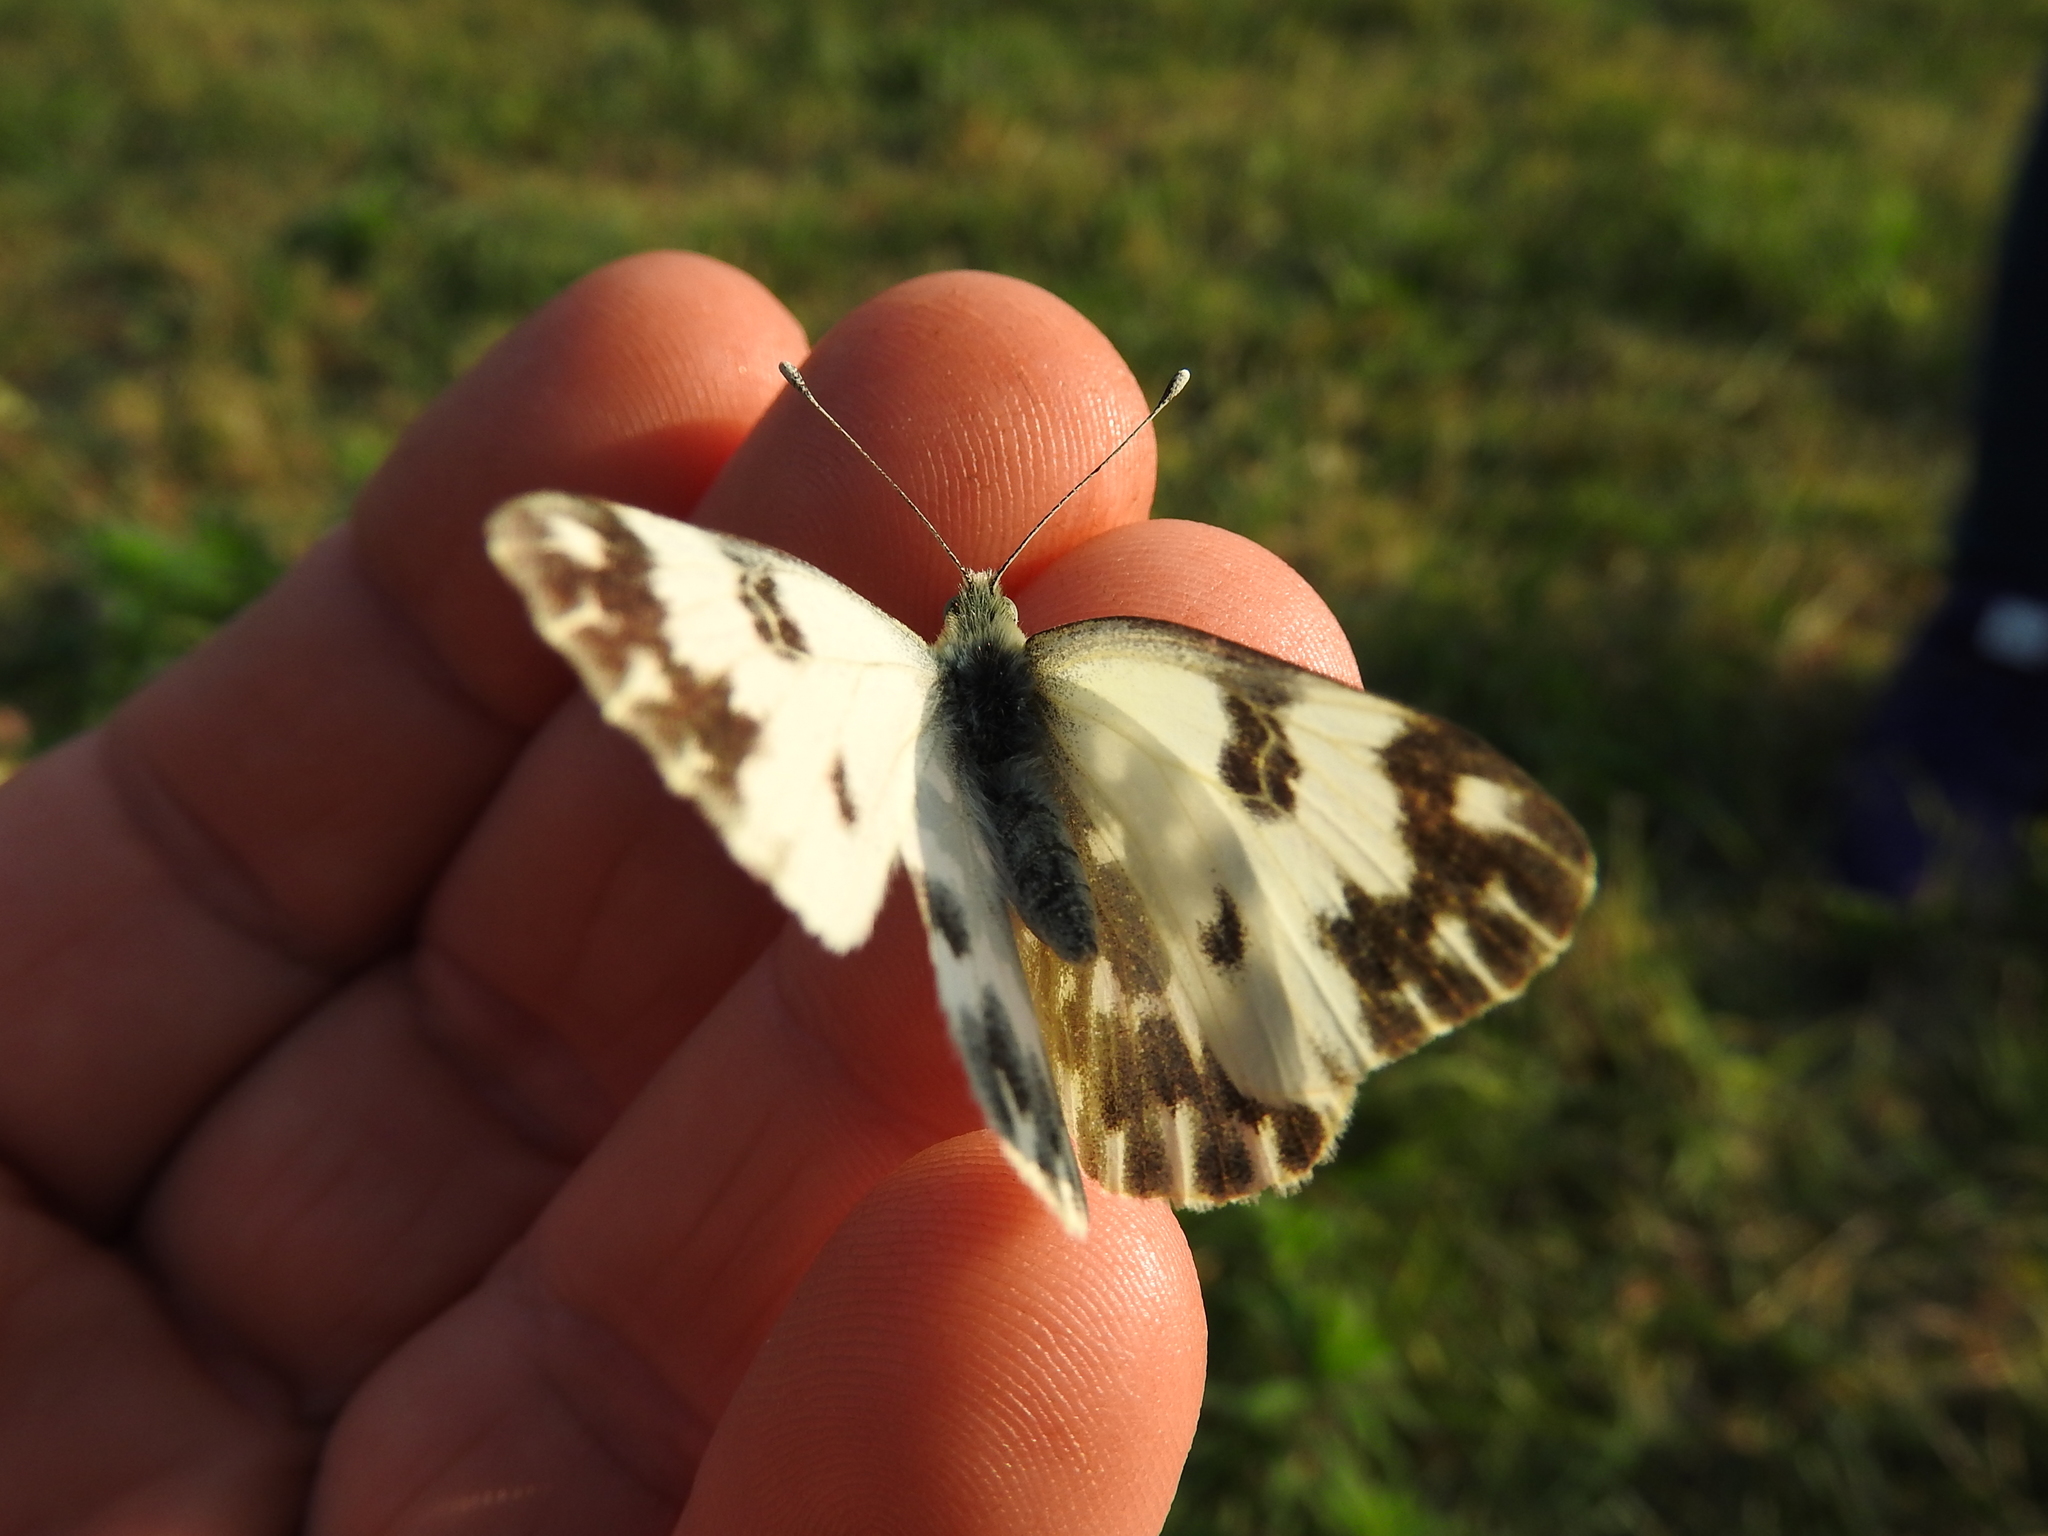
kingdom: Animalia
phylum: Arthropoda
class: Insecta
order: Lepidoptera
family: Pieridae
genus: Pontia
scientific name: Pontia edusa
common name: Eastern bath white
